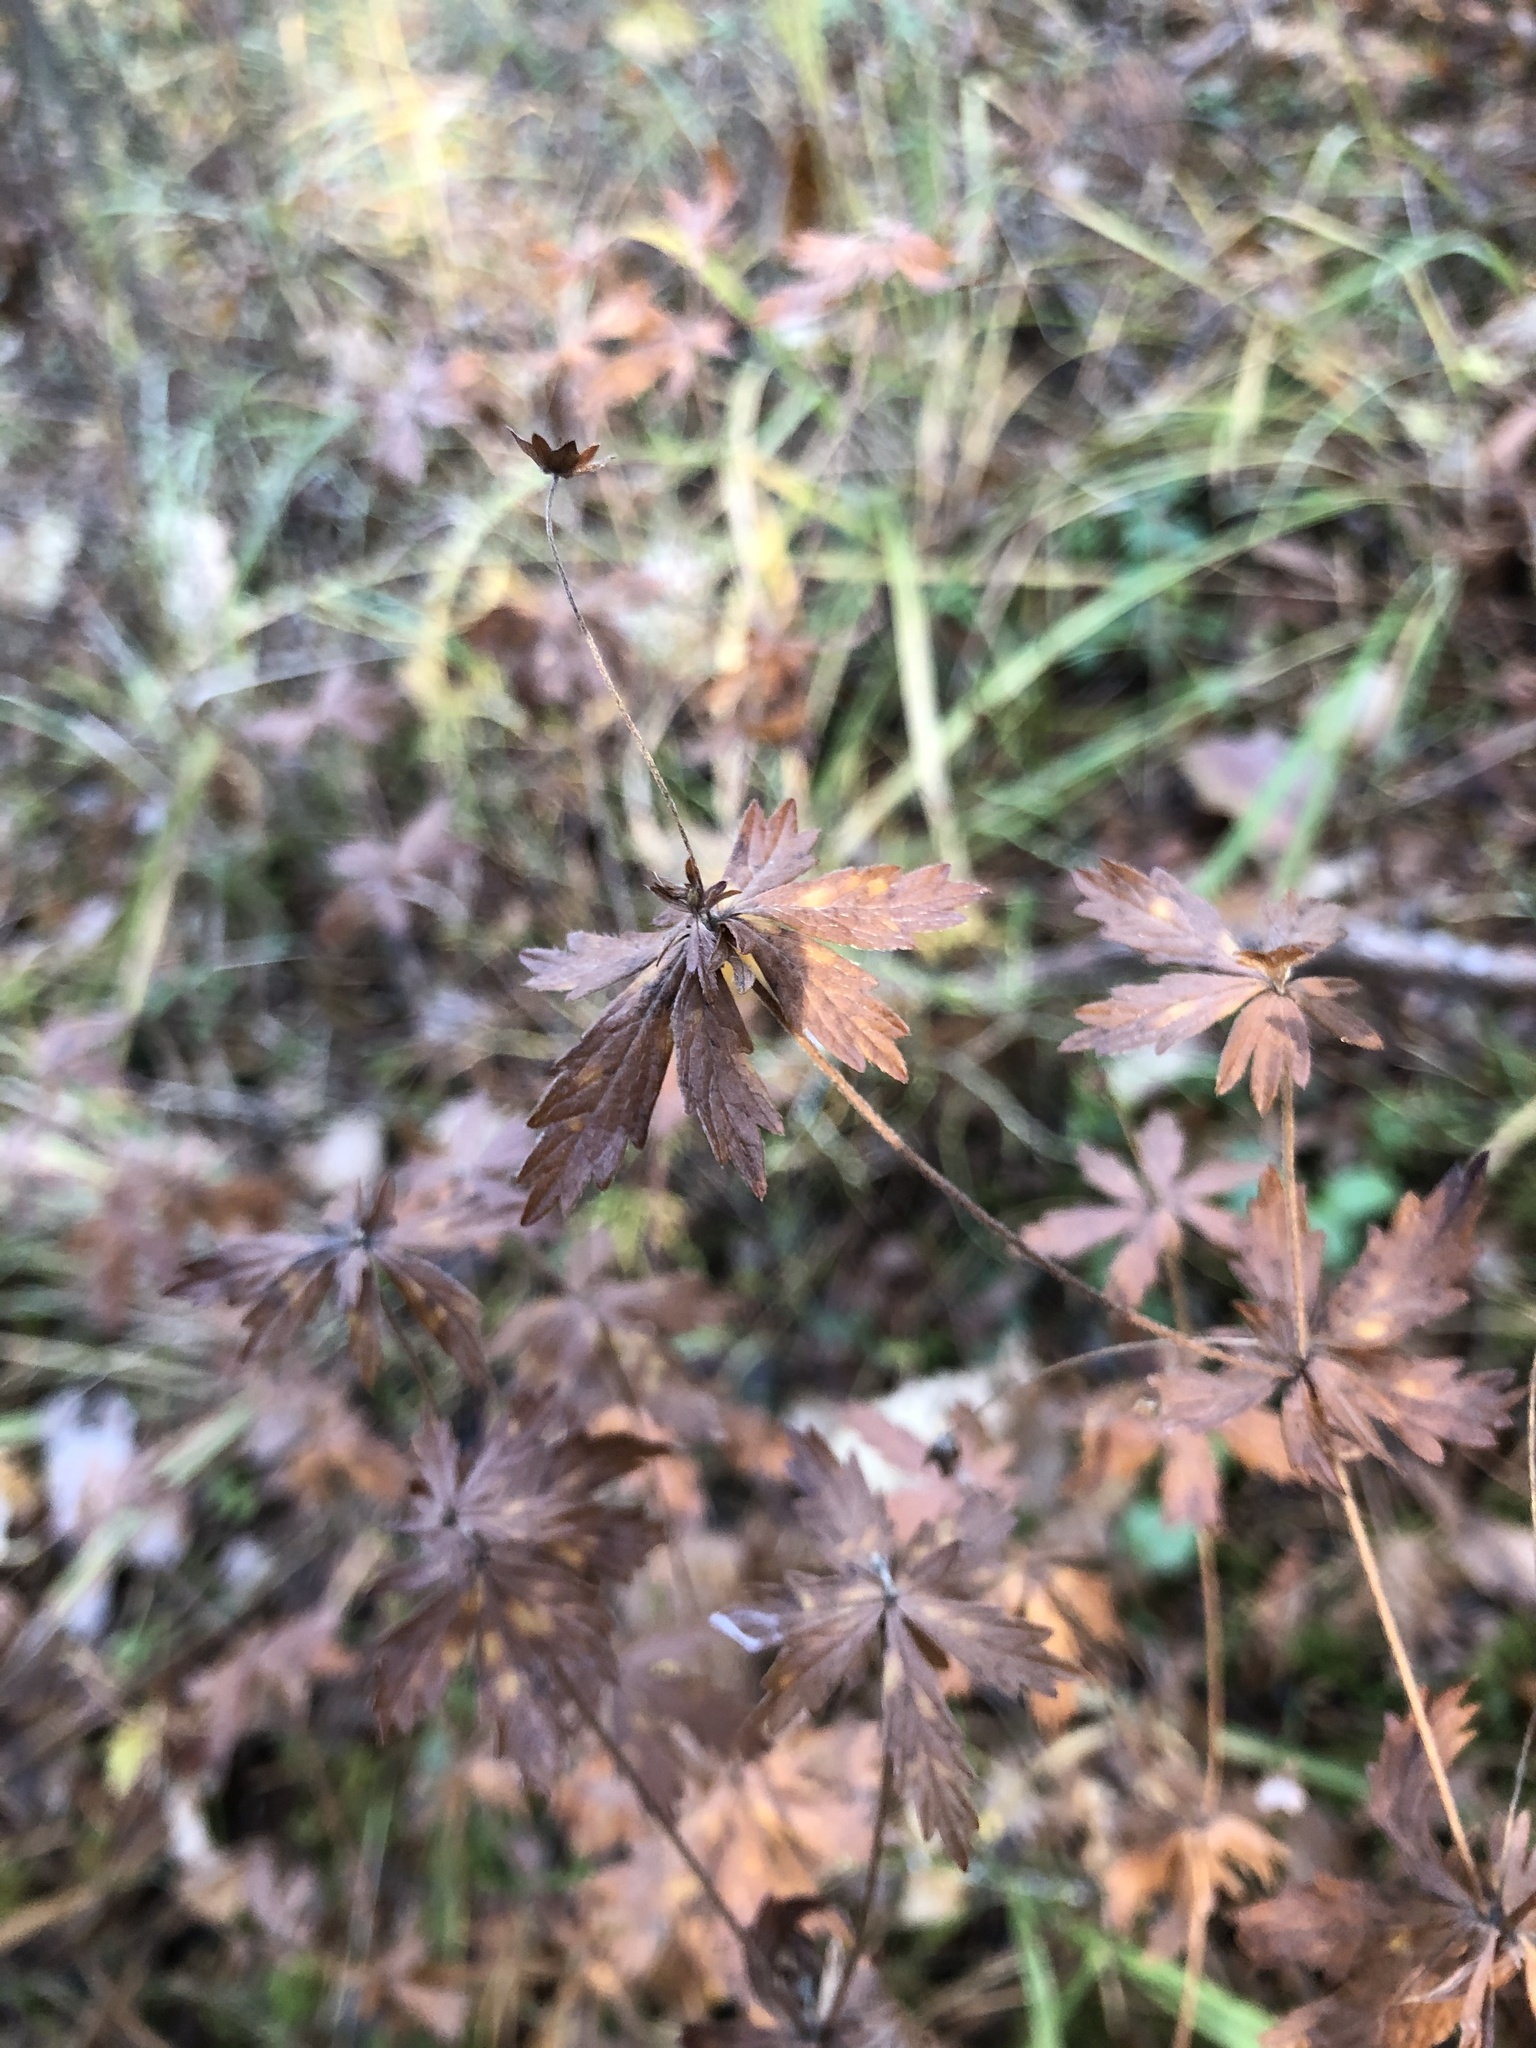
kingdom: Plantae
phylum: Tracheophyta
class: Magnoliopsida
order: Rosales
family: Rosaceae
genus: Potentilla
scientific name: Potentilla erecta
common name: Tormentil
